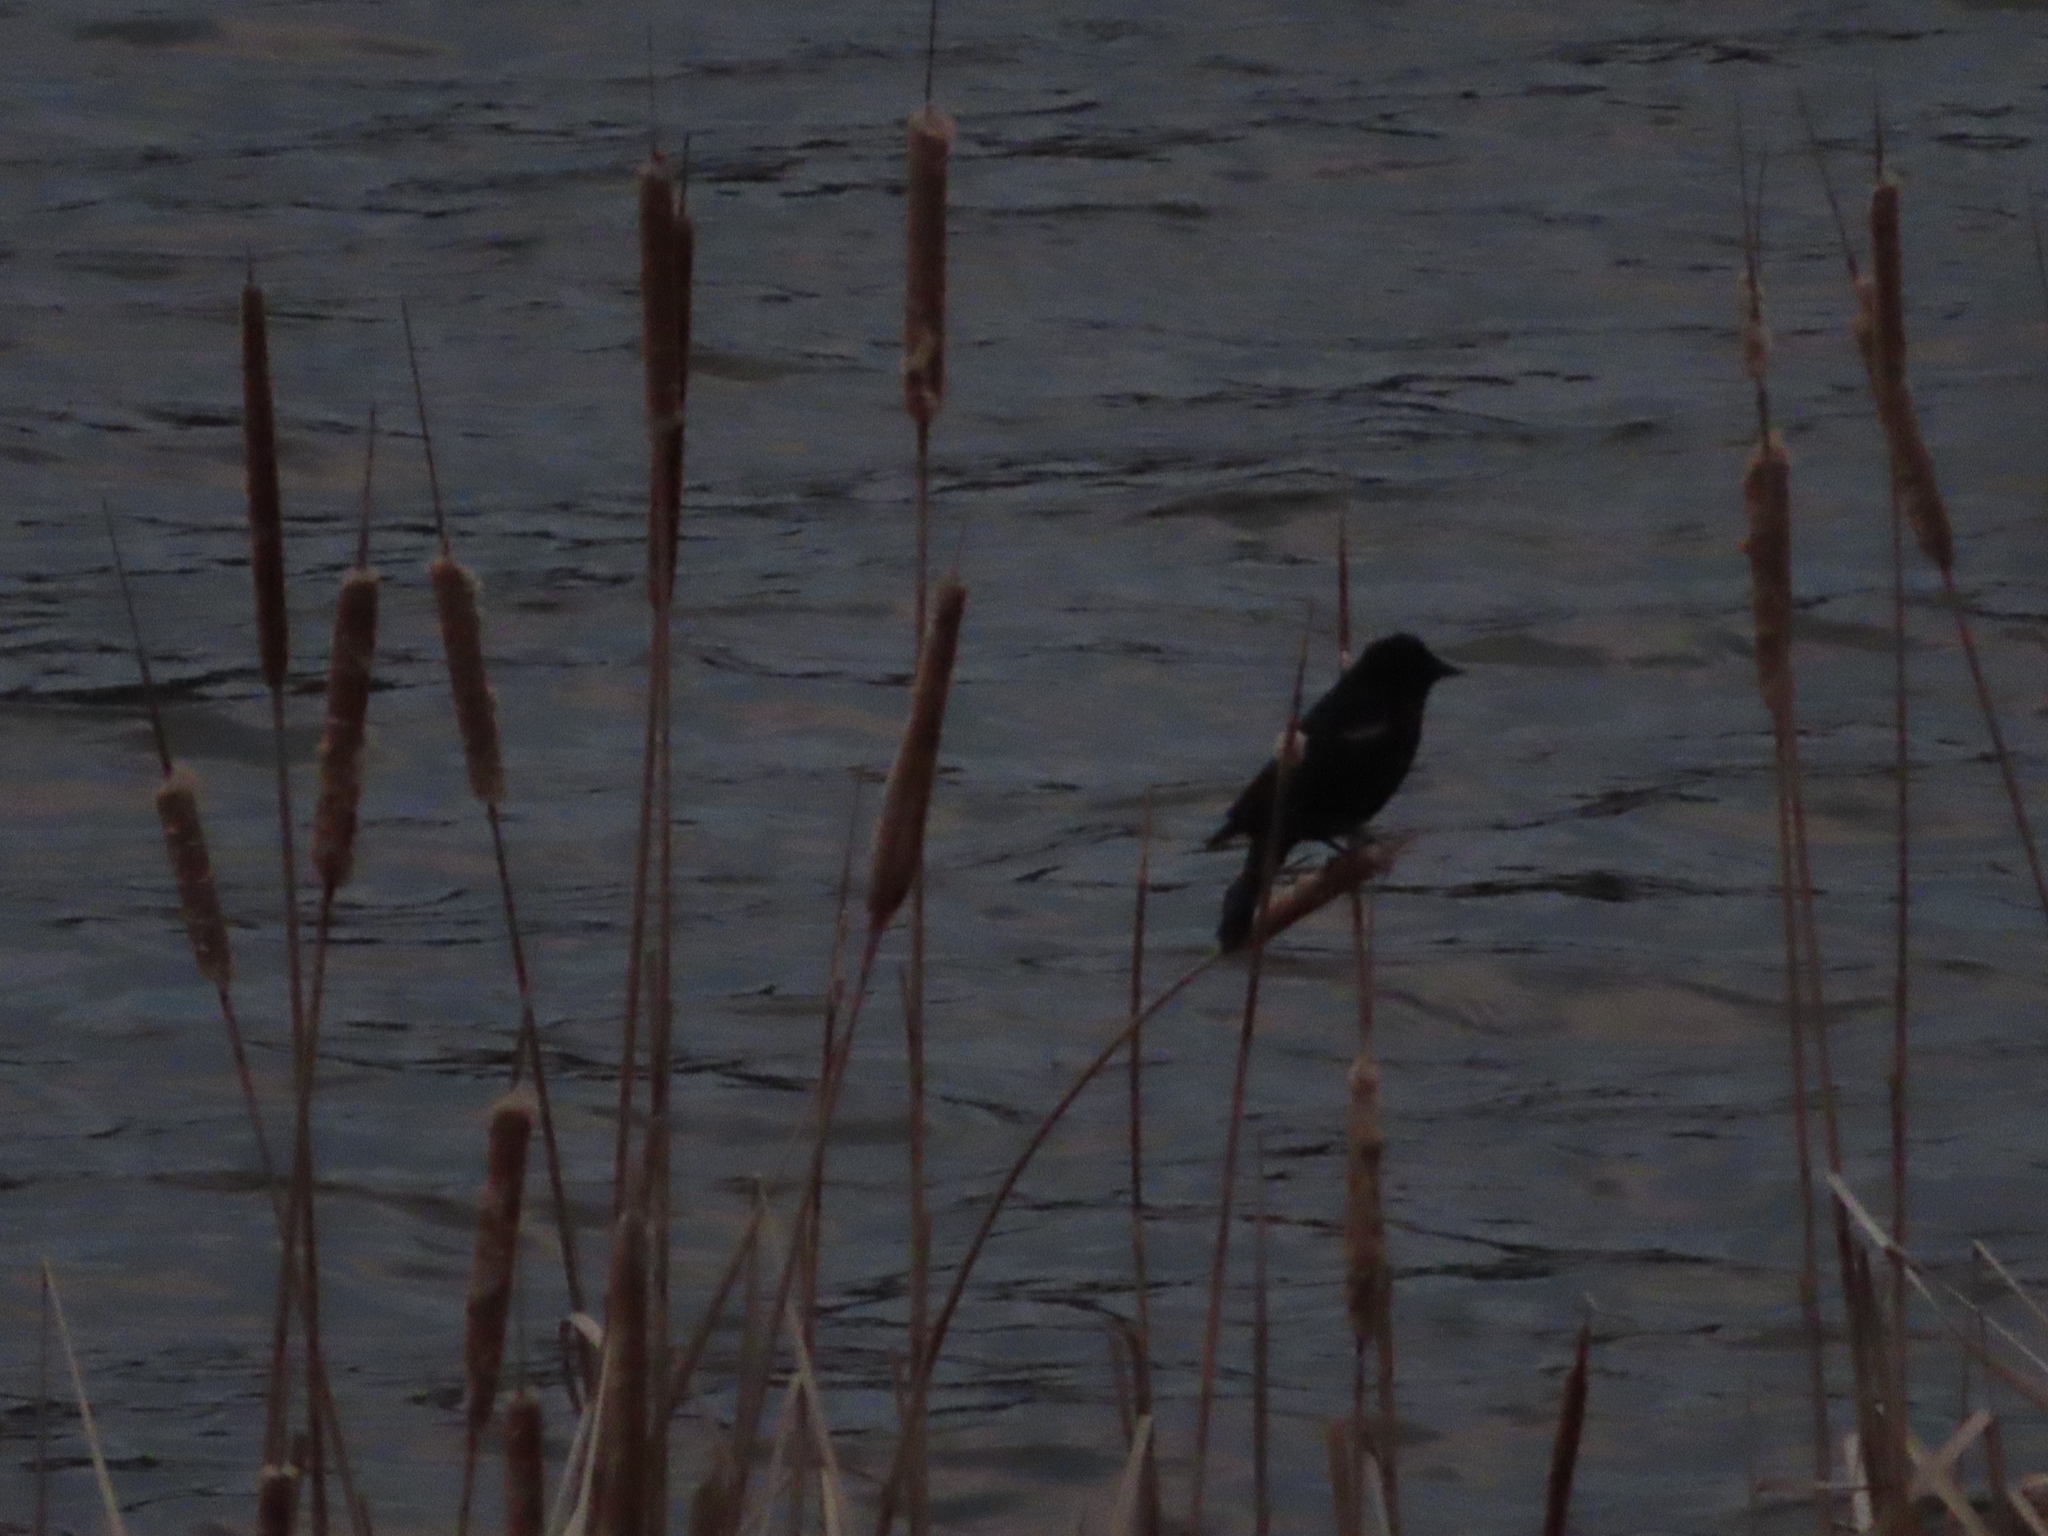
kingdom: Animalia
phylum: Chordata
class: Aves
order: Passeriformes
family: Icteridae
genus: Agelaius
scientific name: Agelaius phoeniceus
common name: Red-winged blackbird
